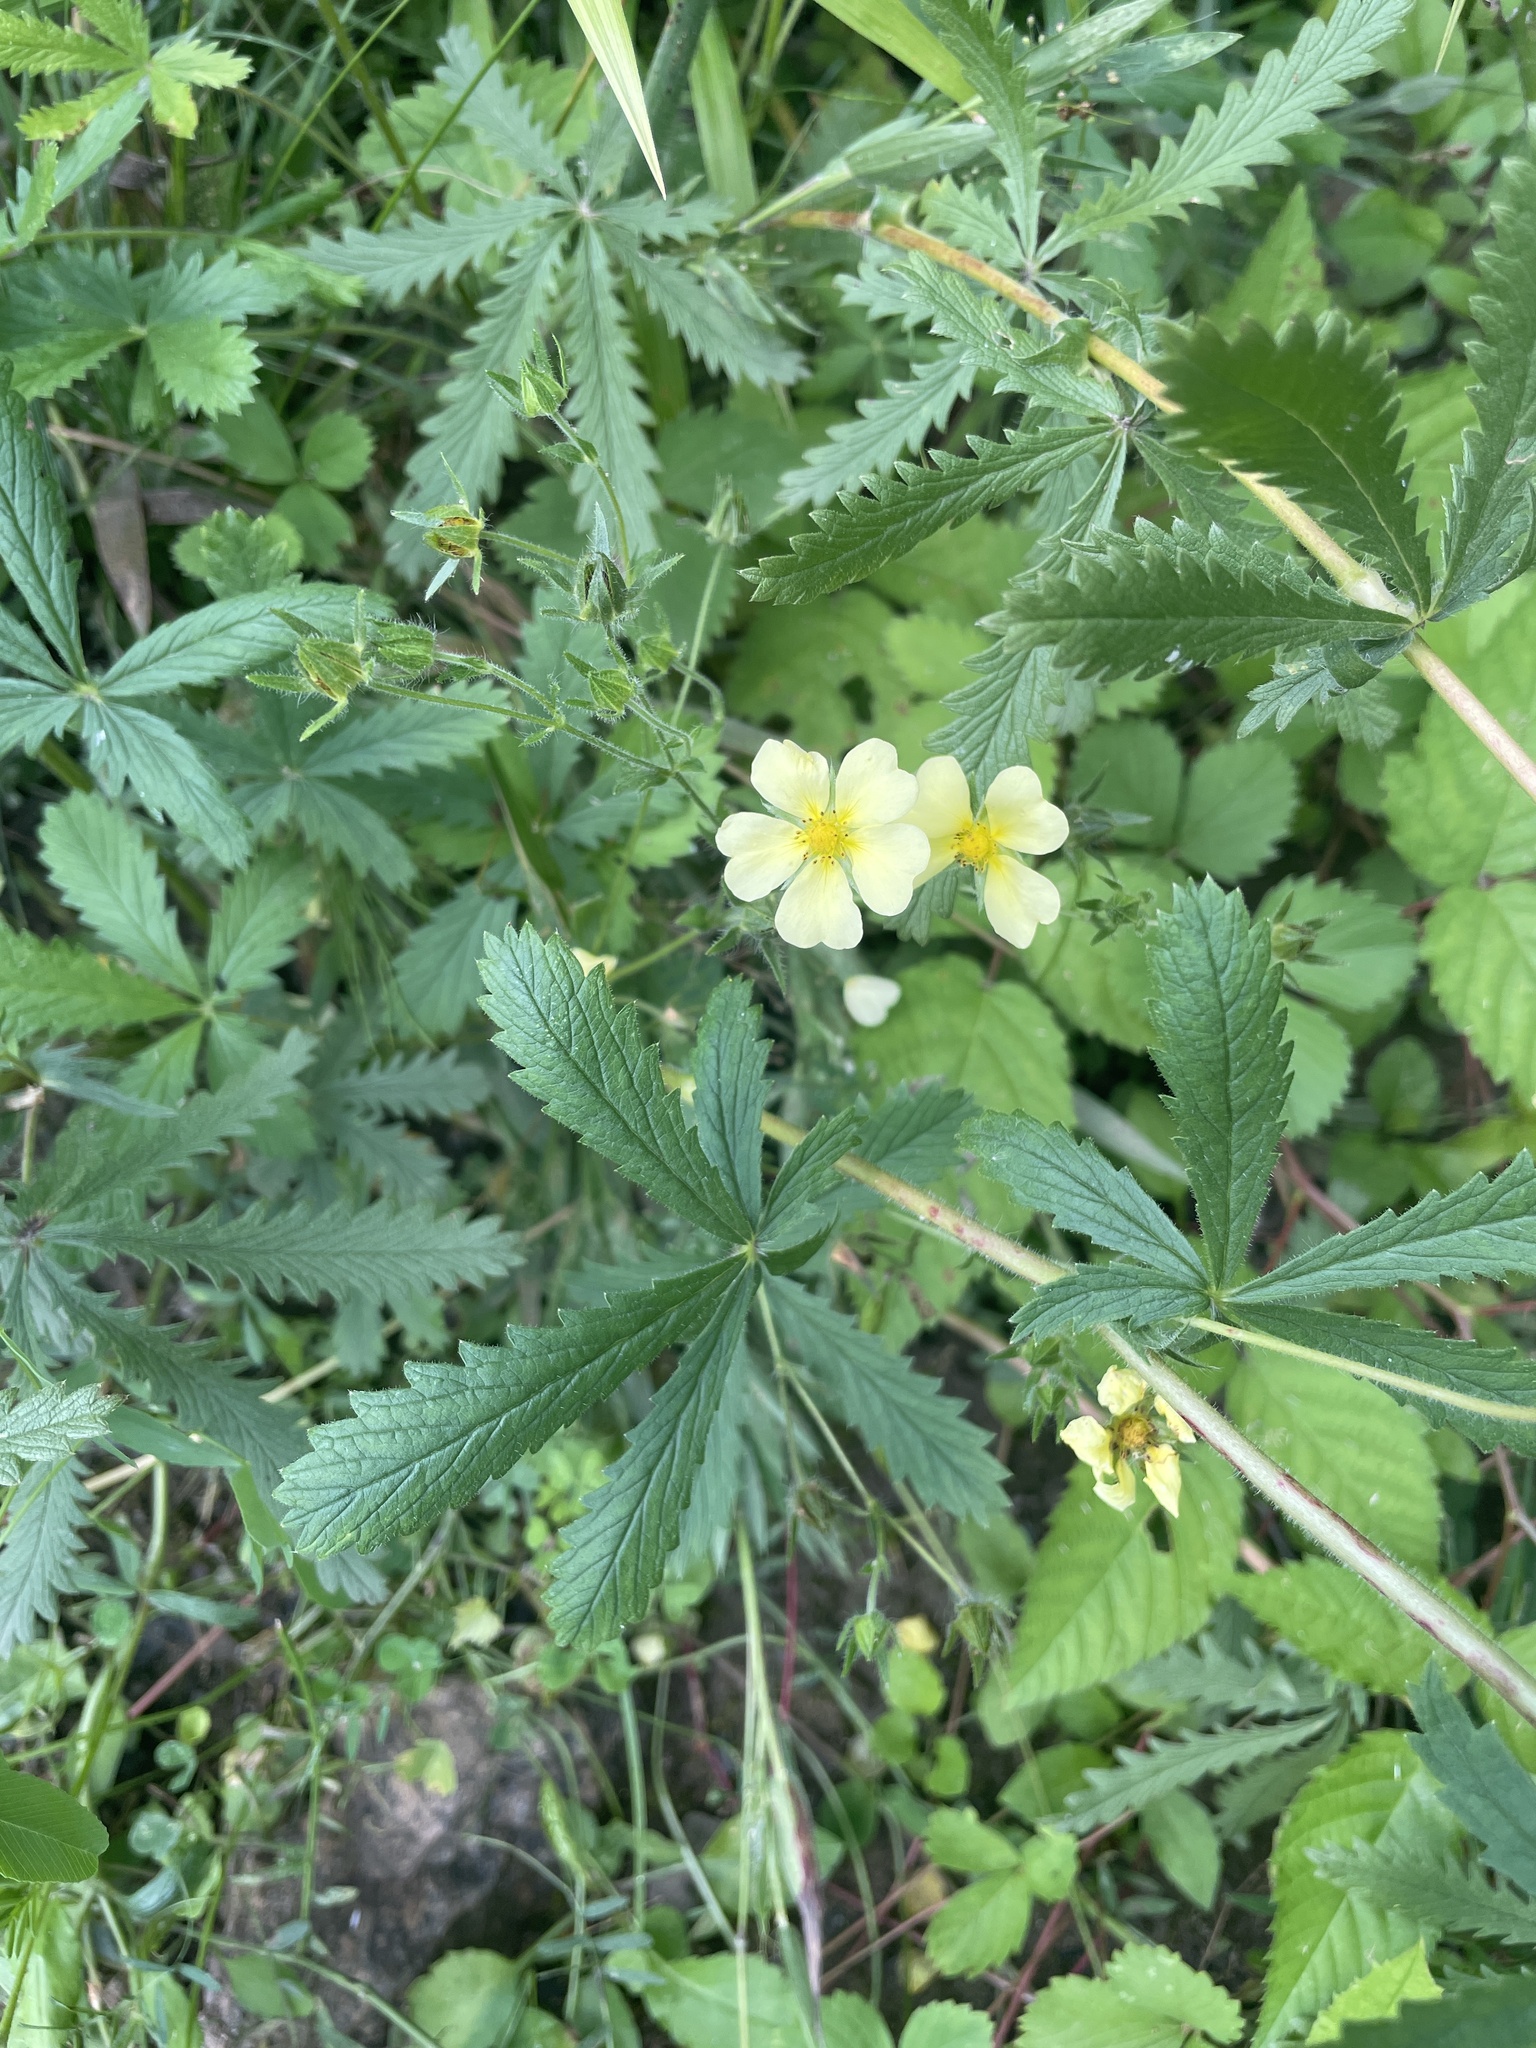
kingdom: Plantae
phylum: Tracheophyta
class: Magnoliopsida
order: Rosales
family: Rosaceae
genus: Potentilla
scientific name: Potentilla recta
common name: Sulphur cinquefoil
